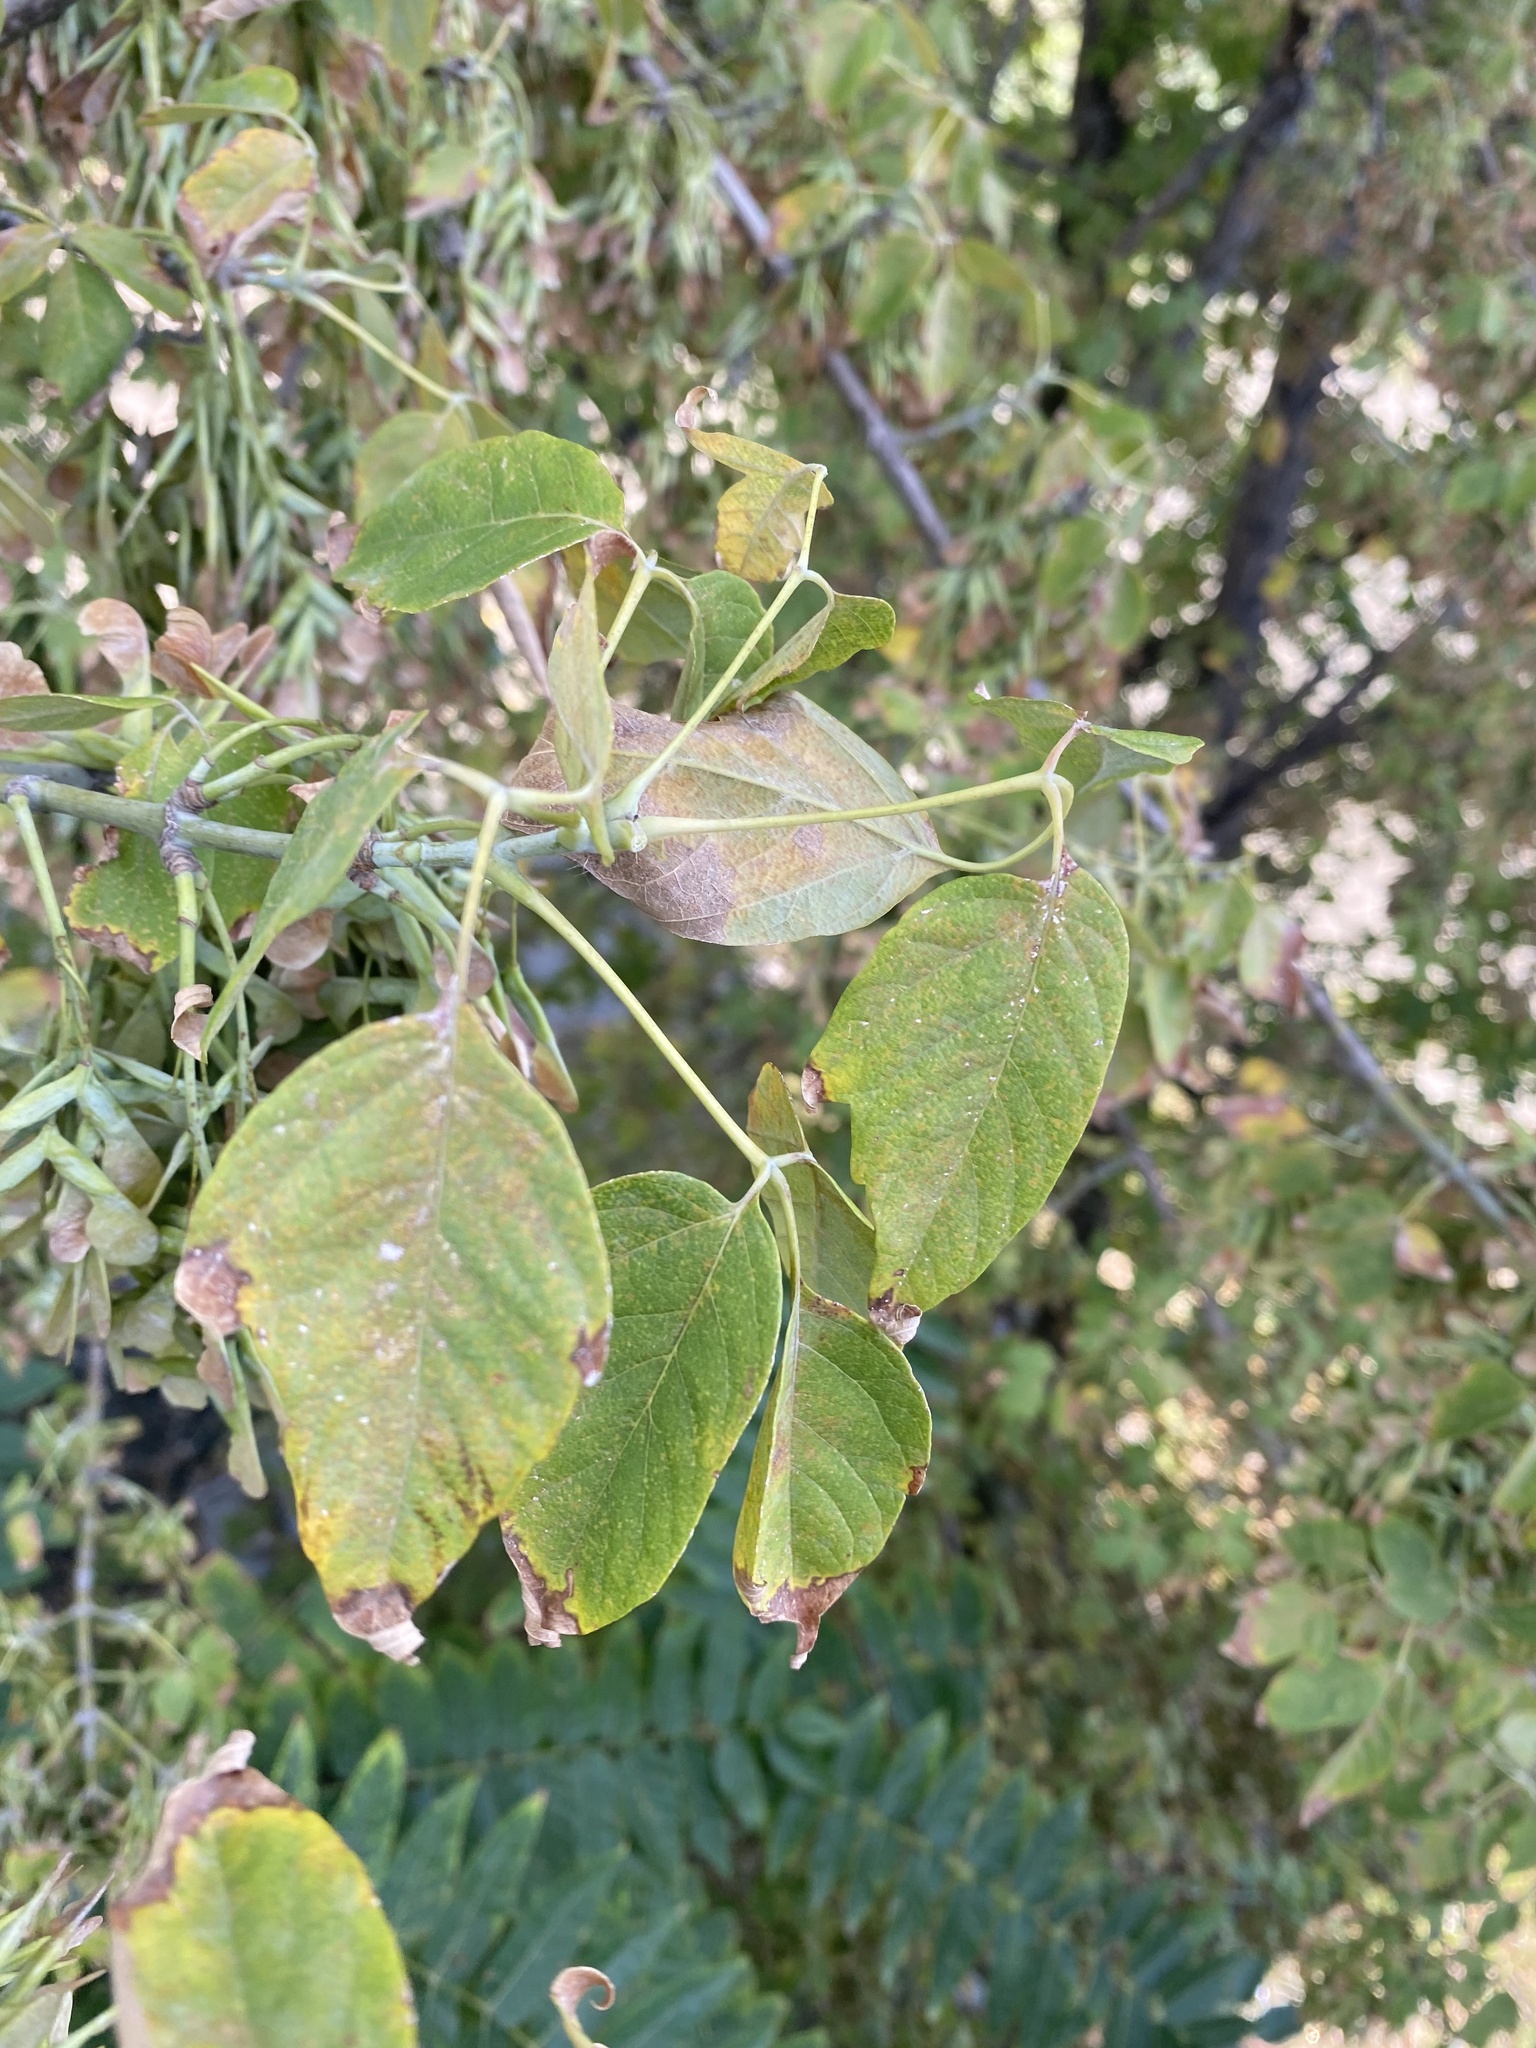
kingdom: Plantae
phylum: Tracheophyta
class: Magnoliopsida
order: Sapindales
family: Sapindaceae
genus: Acer
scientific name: Acer negundo
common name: Ashleaf maple
